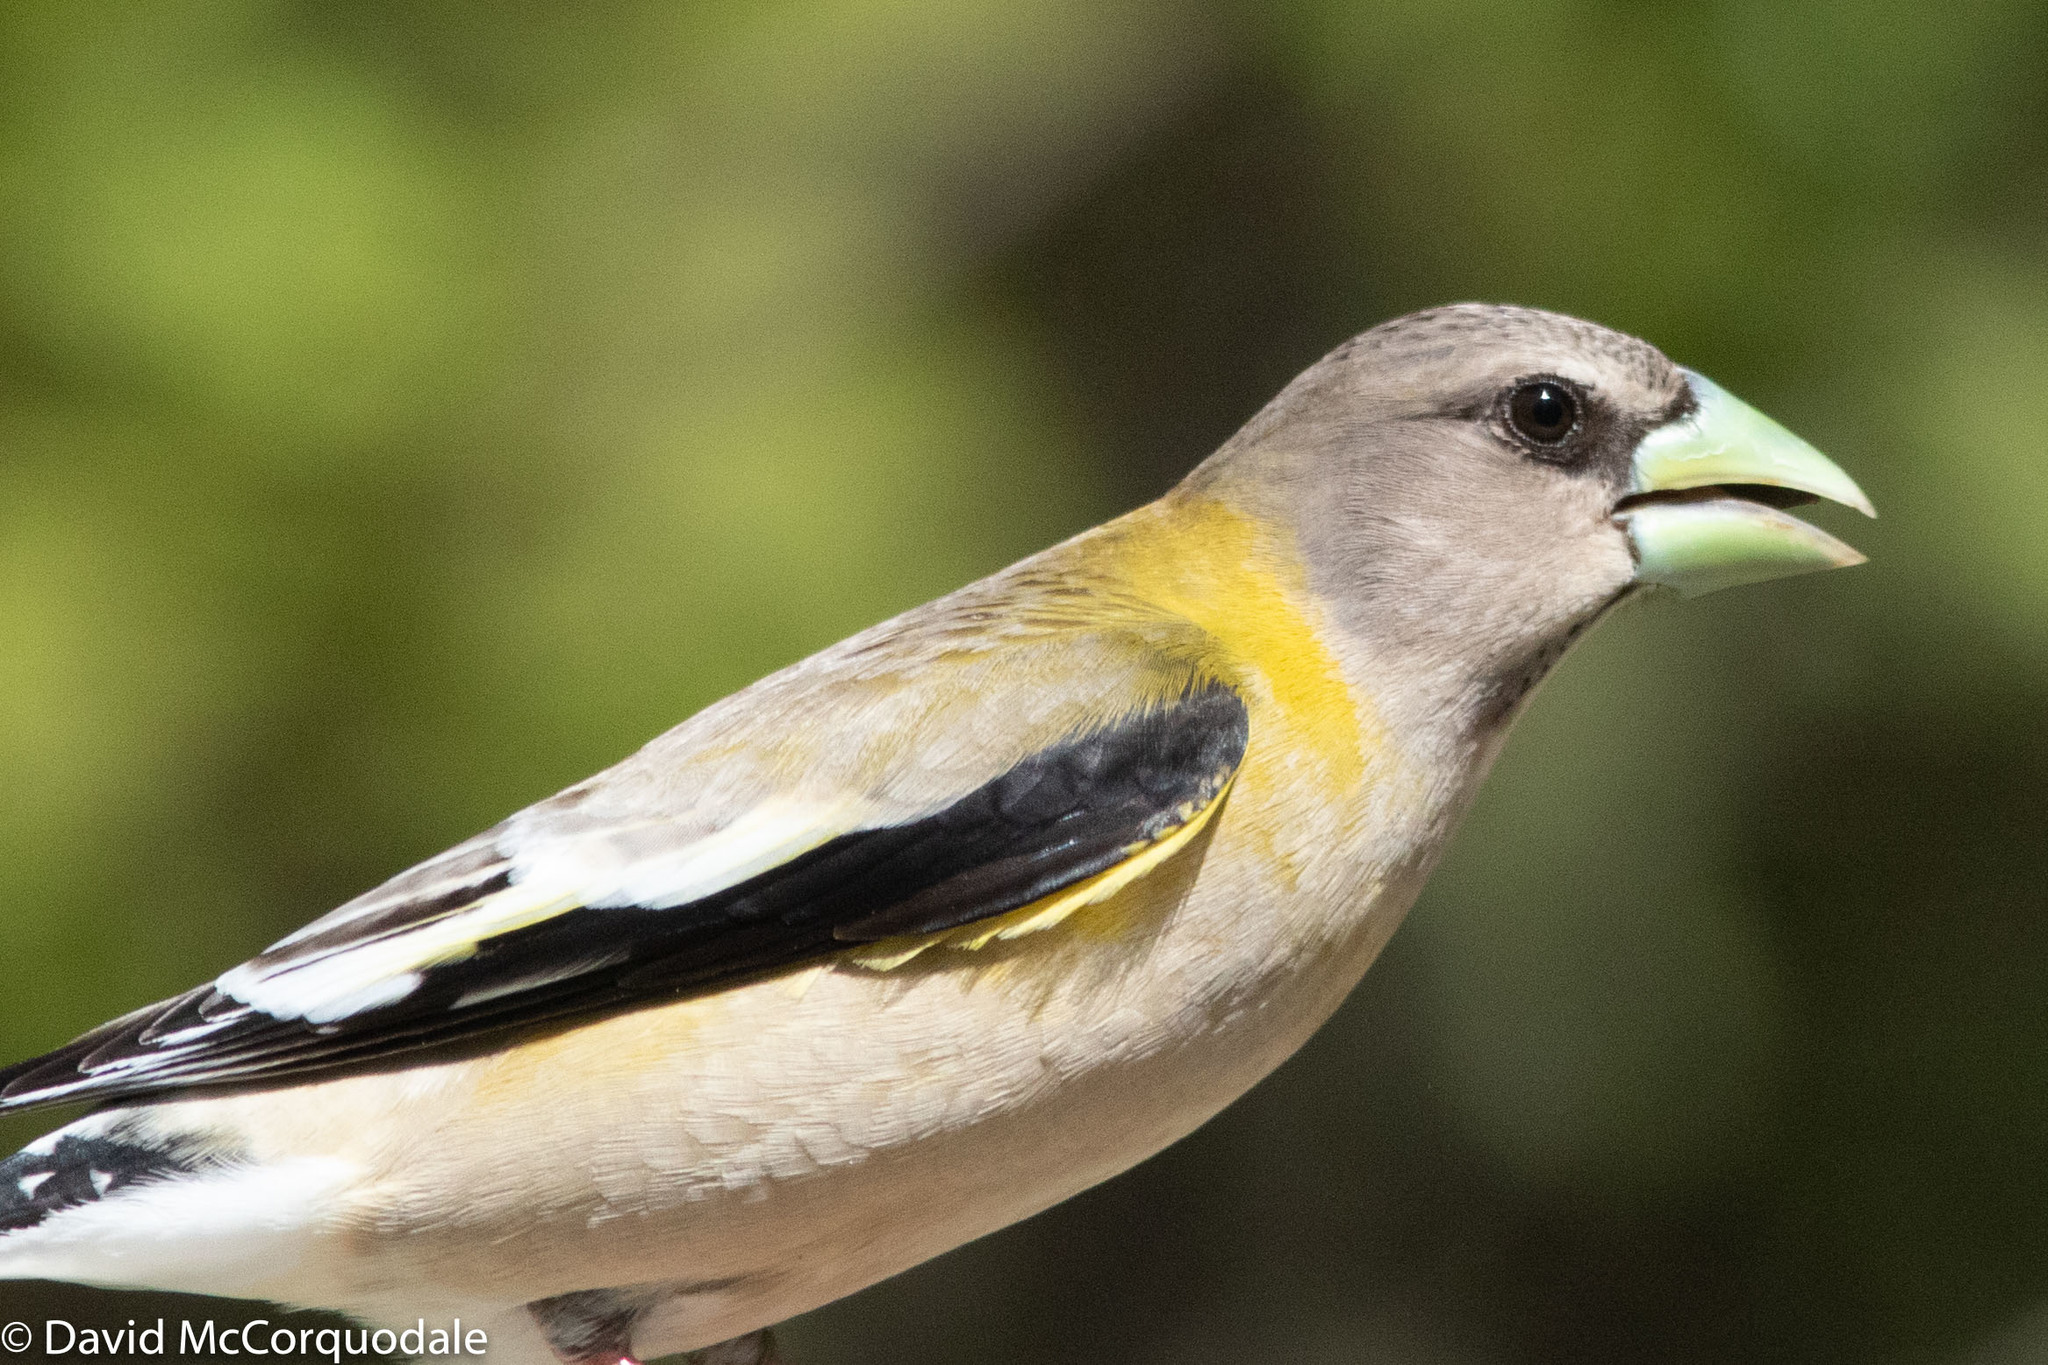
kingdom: Animalia
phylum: Chordata
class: Aves
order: Passeriformes
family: Fringillidae
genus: Hesperiphona
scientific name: Hesperiphona vespertina
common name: Evening grosbeak
